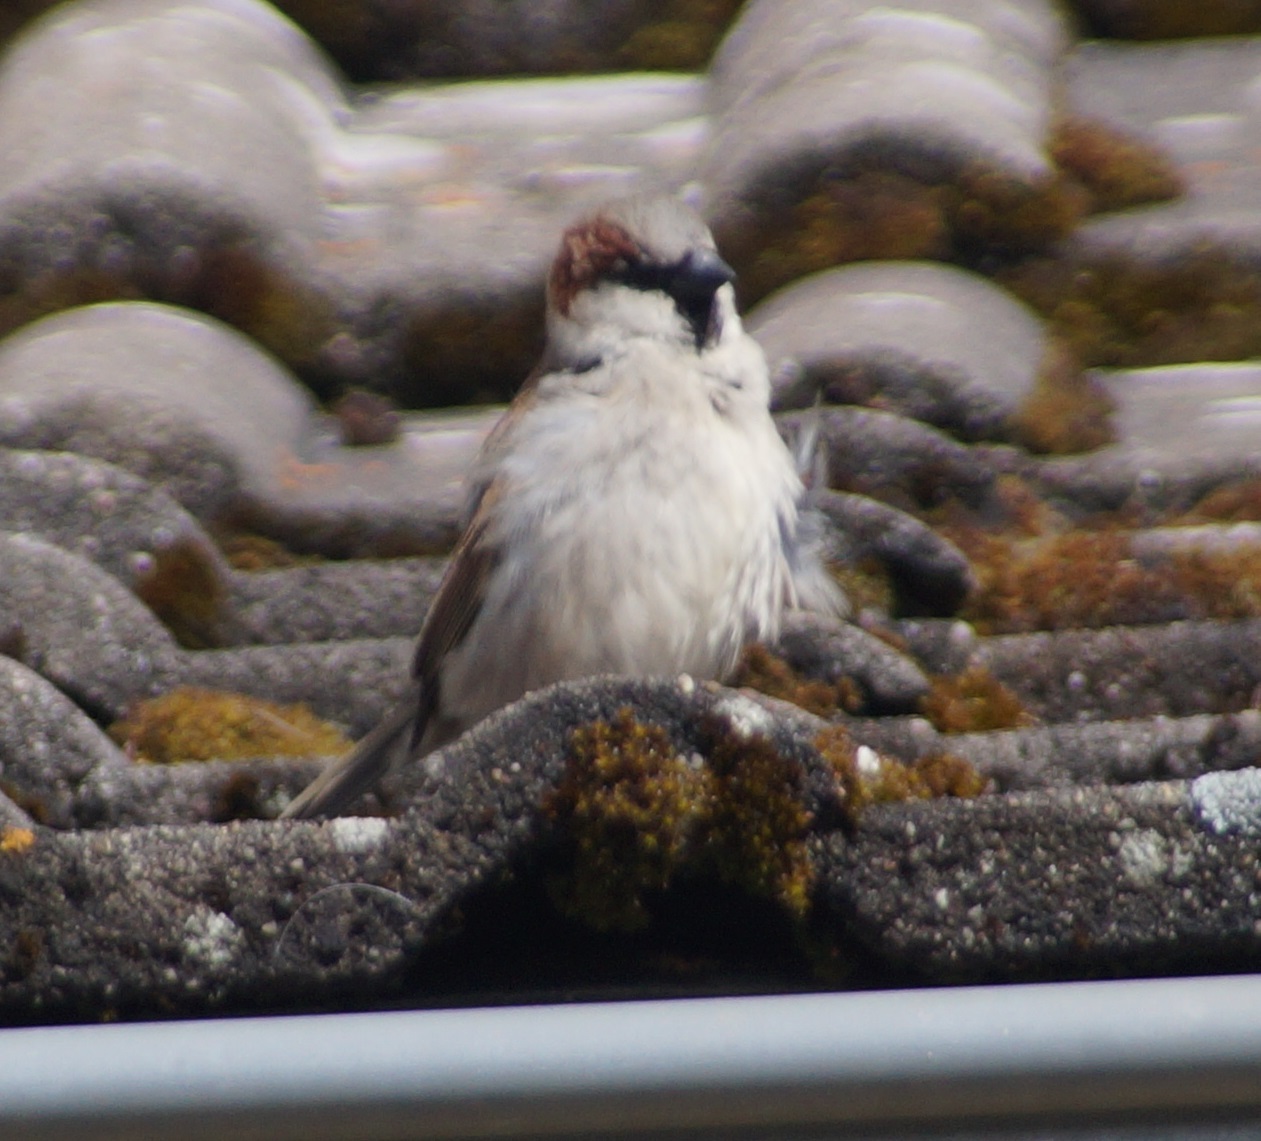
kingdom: Animalia
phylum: Chordata
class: Aves
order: Passeriformes
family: Passeridae
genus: Passer
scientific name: Passer domesticus
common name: House sparrow
